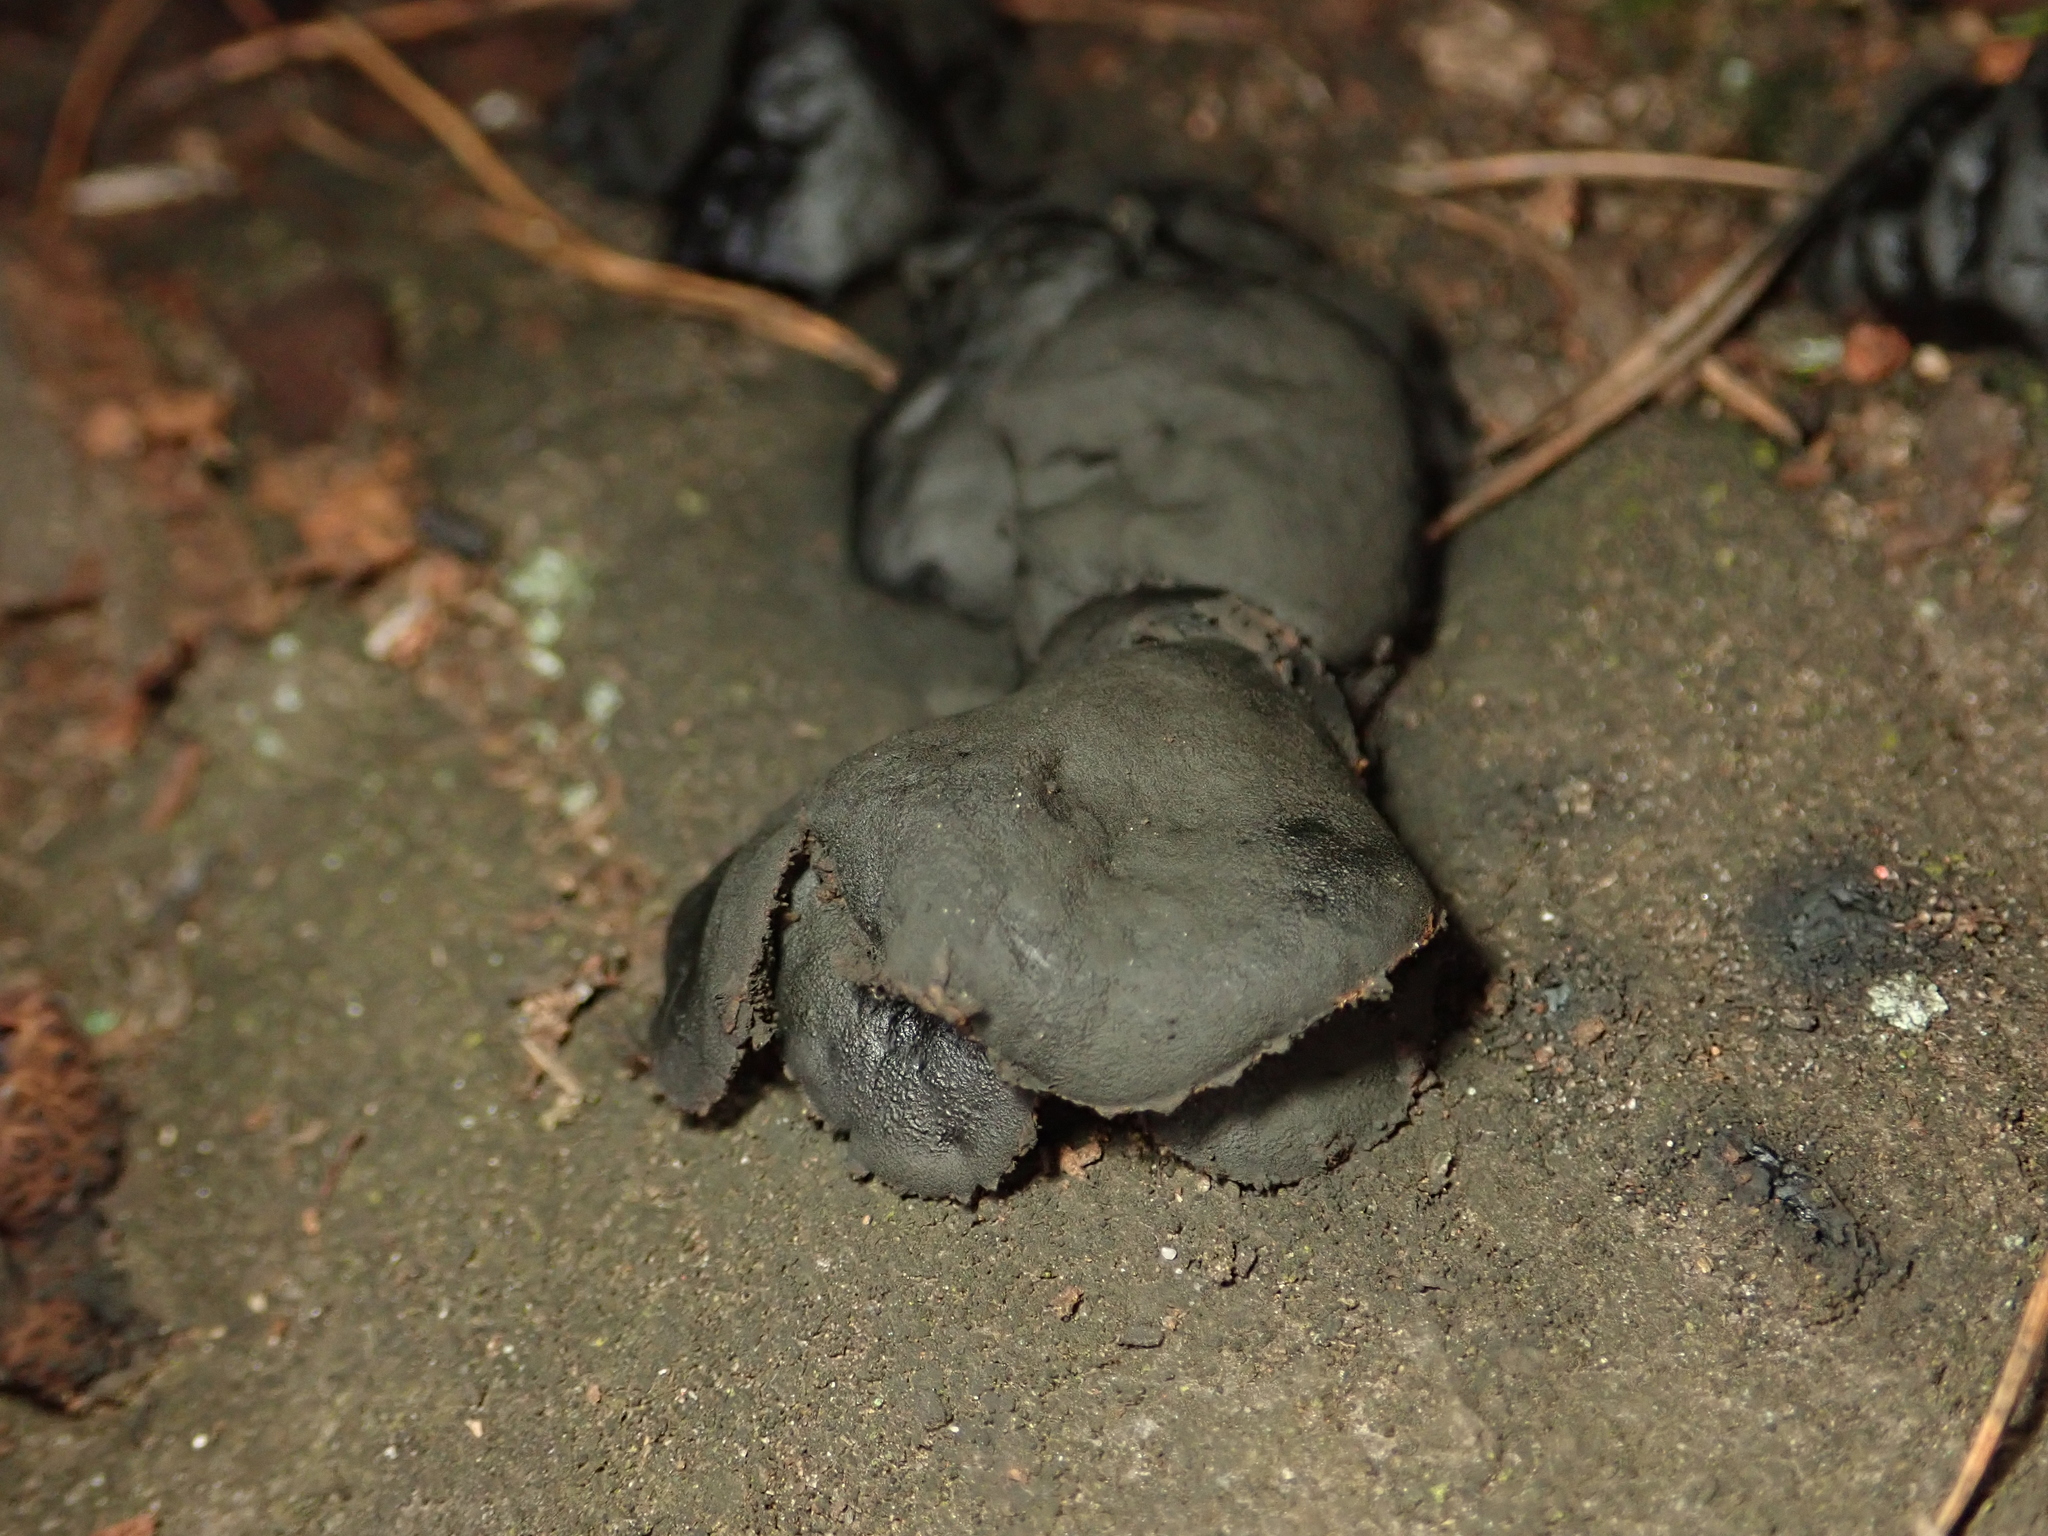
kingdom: Fungi
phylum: Ascomycota
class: Leotiomycetes
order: Phacidiales
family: Phacidiaceae
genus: Bulgaria
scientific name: Bulgaria inquinans
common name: Black bulgar
